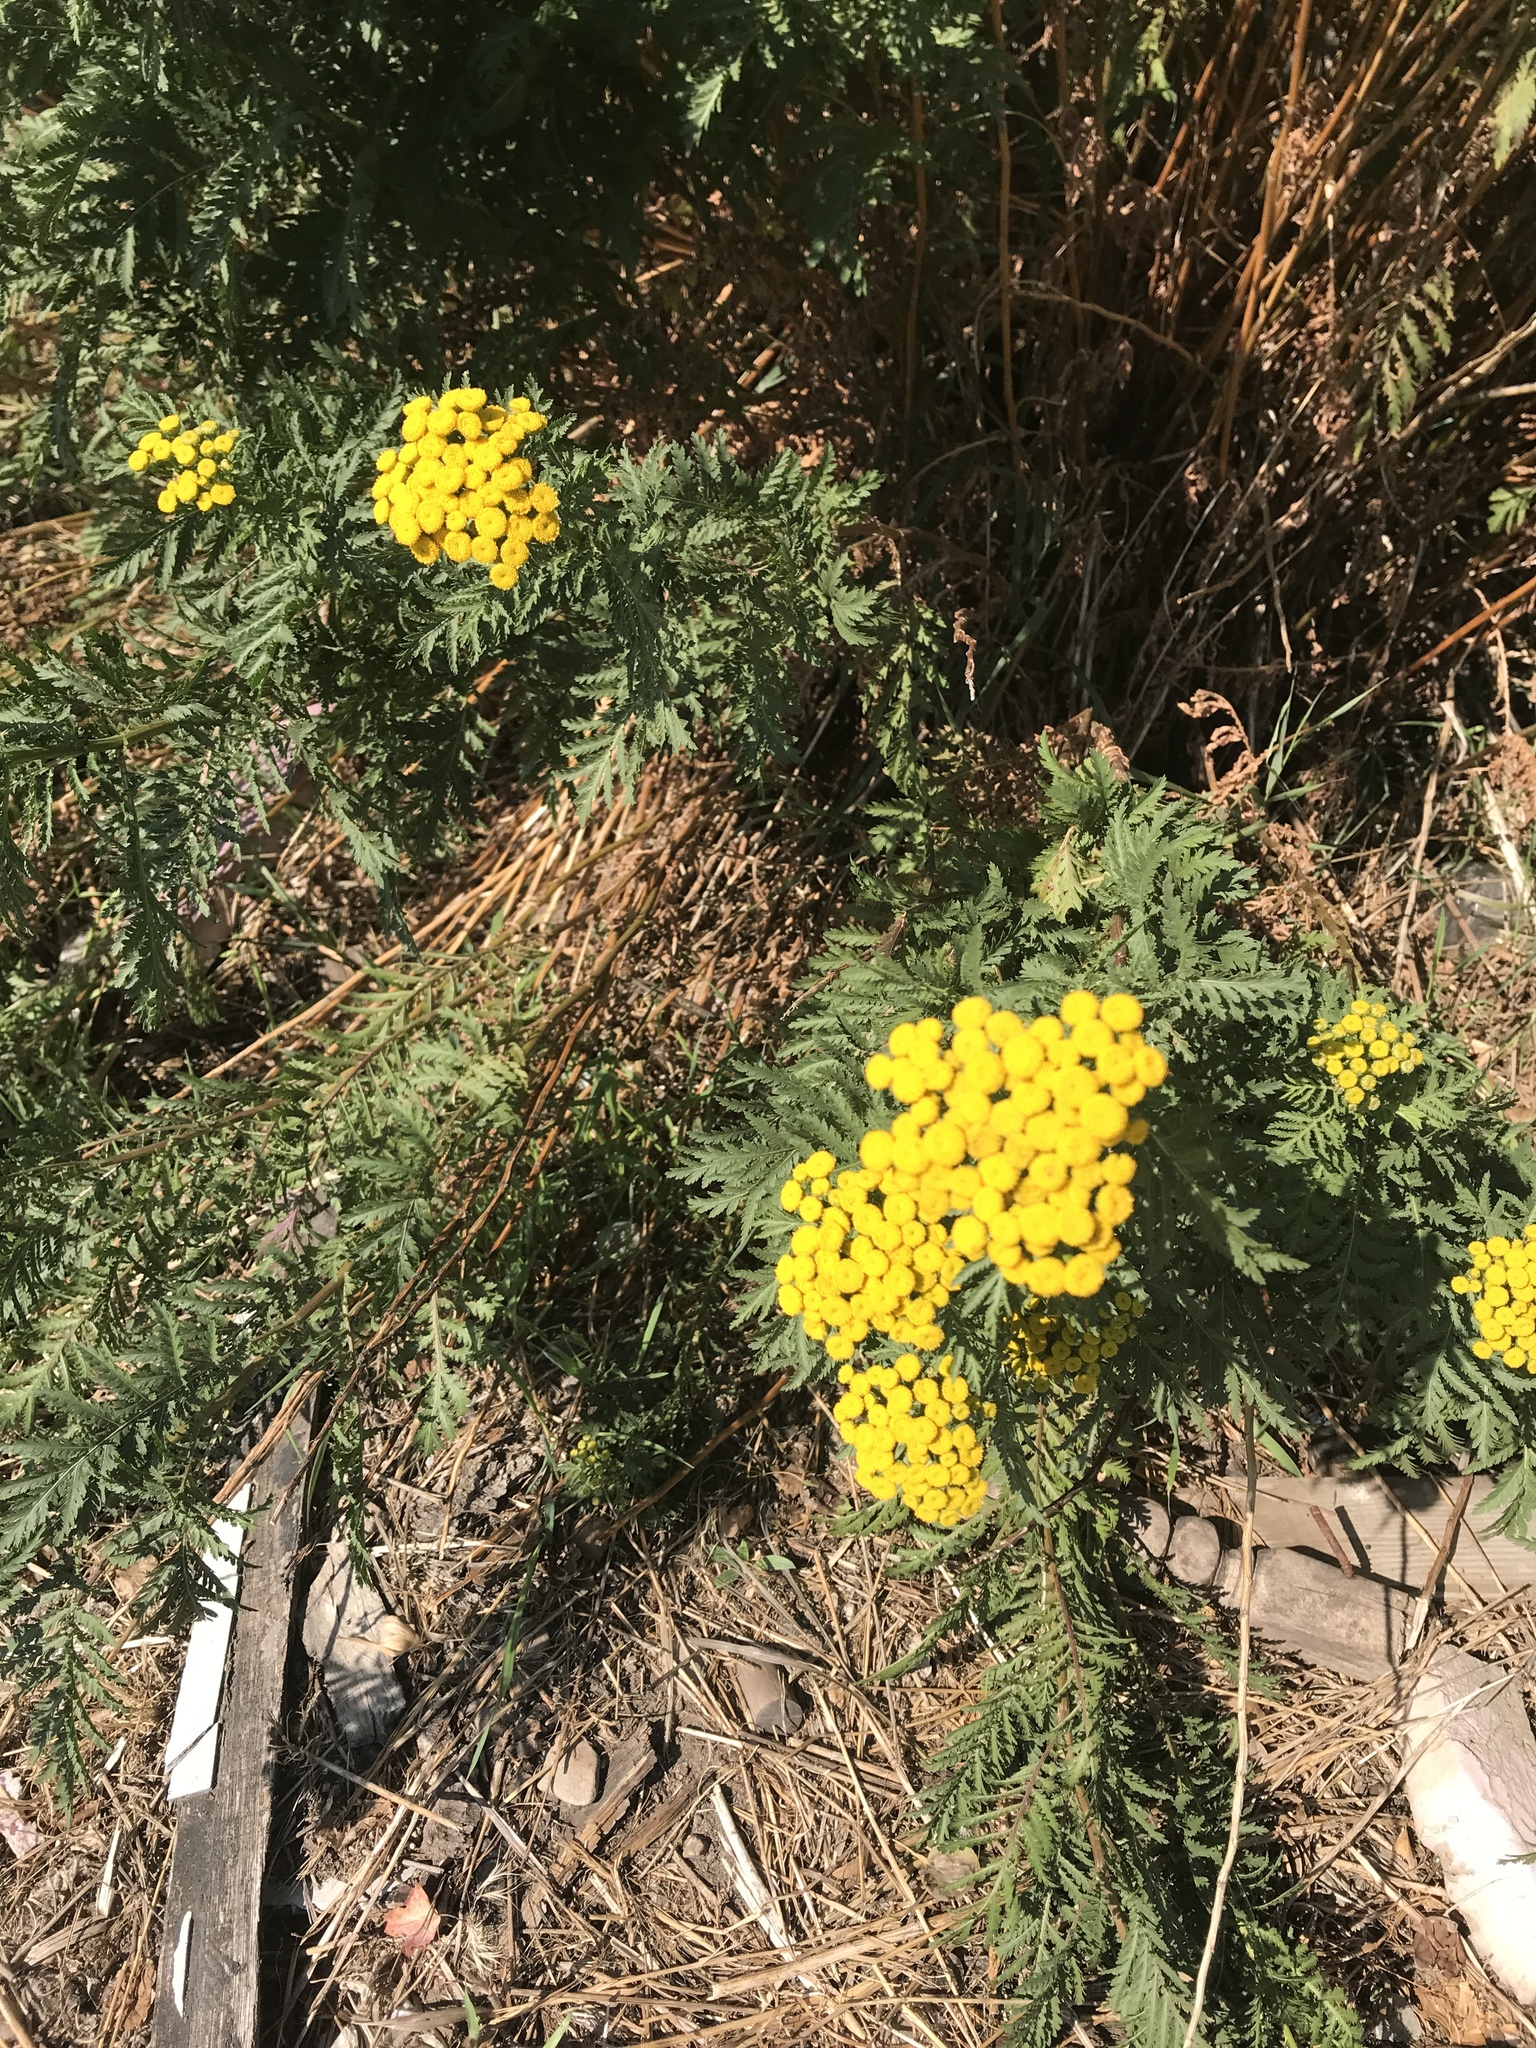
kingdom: Plantae
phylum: Tracheophyta
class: Magnoliopsida
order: Asterales
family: Asteraceae
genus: Tanacetum
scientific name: Tanacetum vulgare
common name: Common tansy
